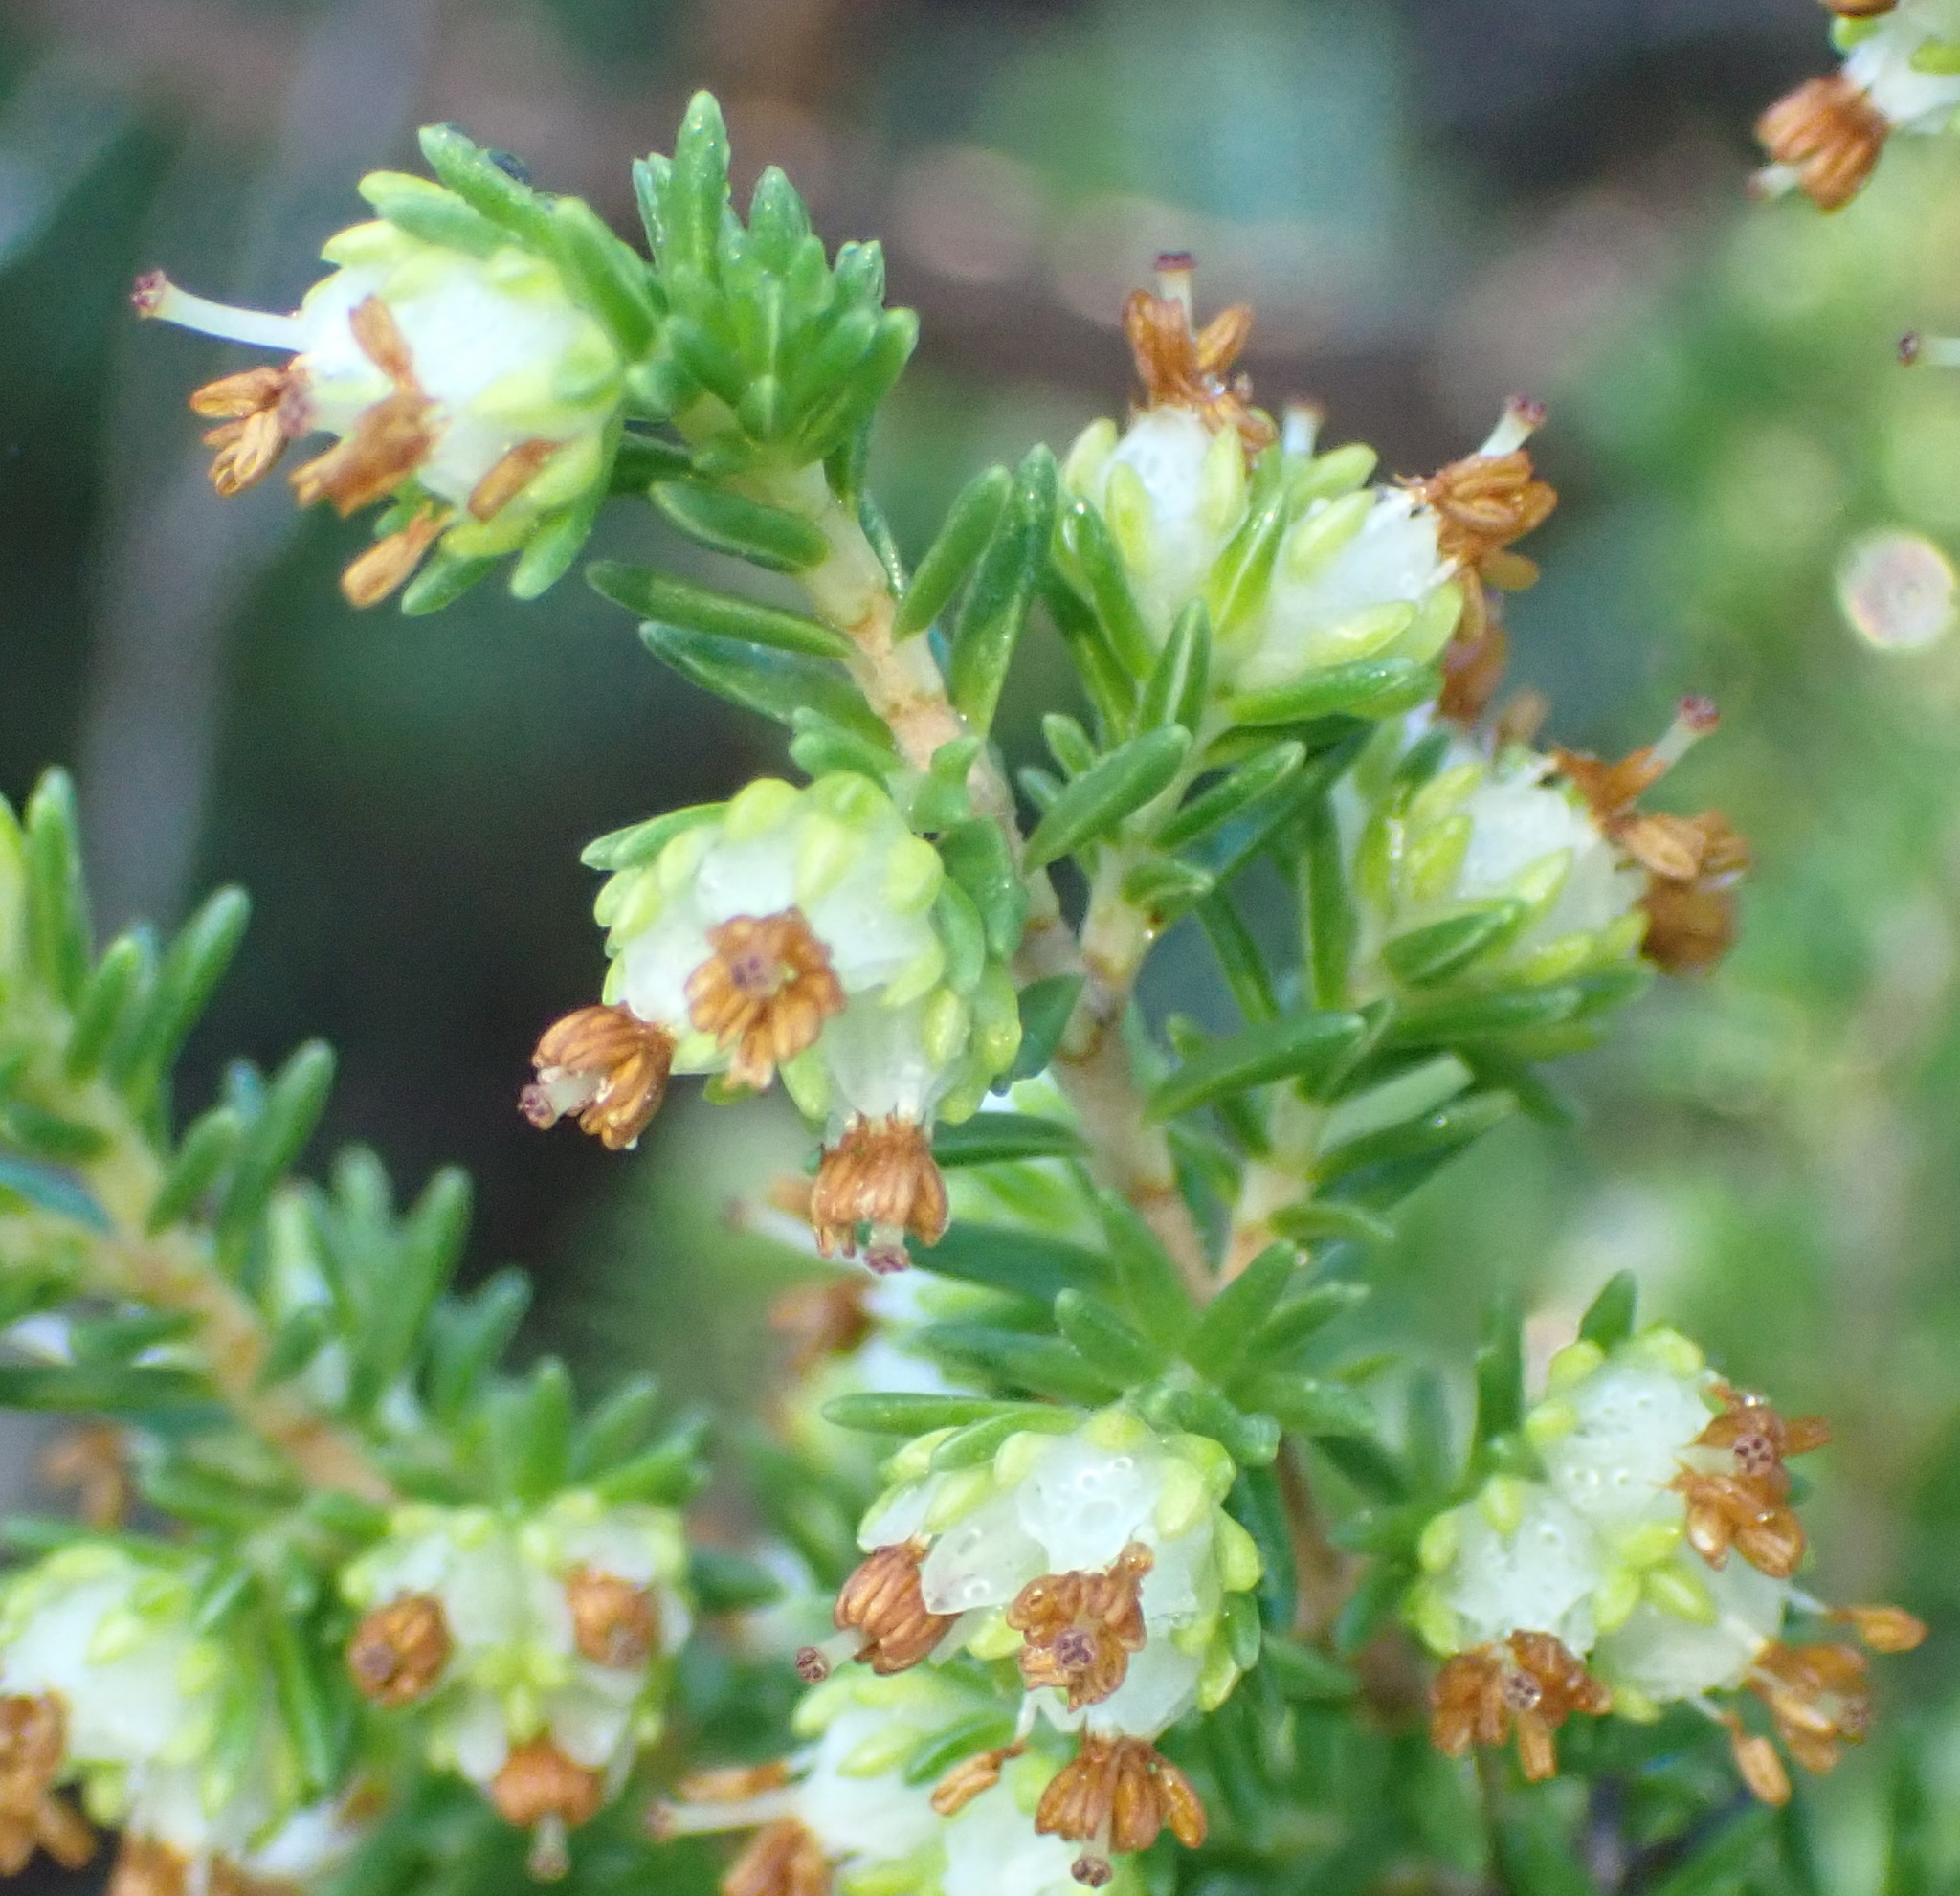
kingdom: Plantae
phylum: Tracheophyta
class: Magnoliopsida
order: Ericales
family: Ericaceae
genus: Erica
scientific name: Erica glumiflora
